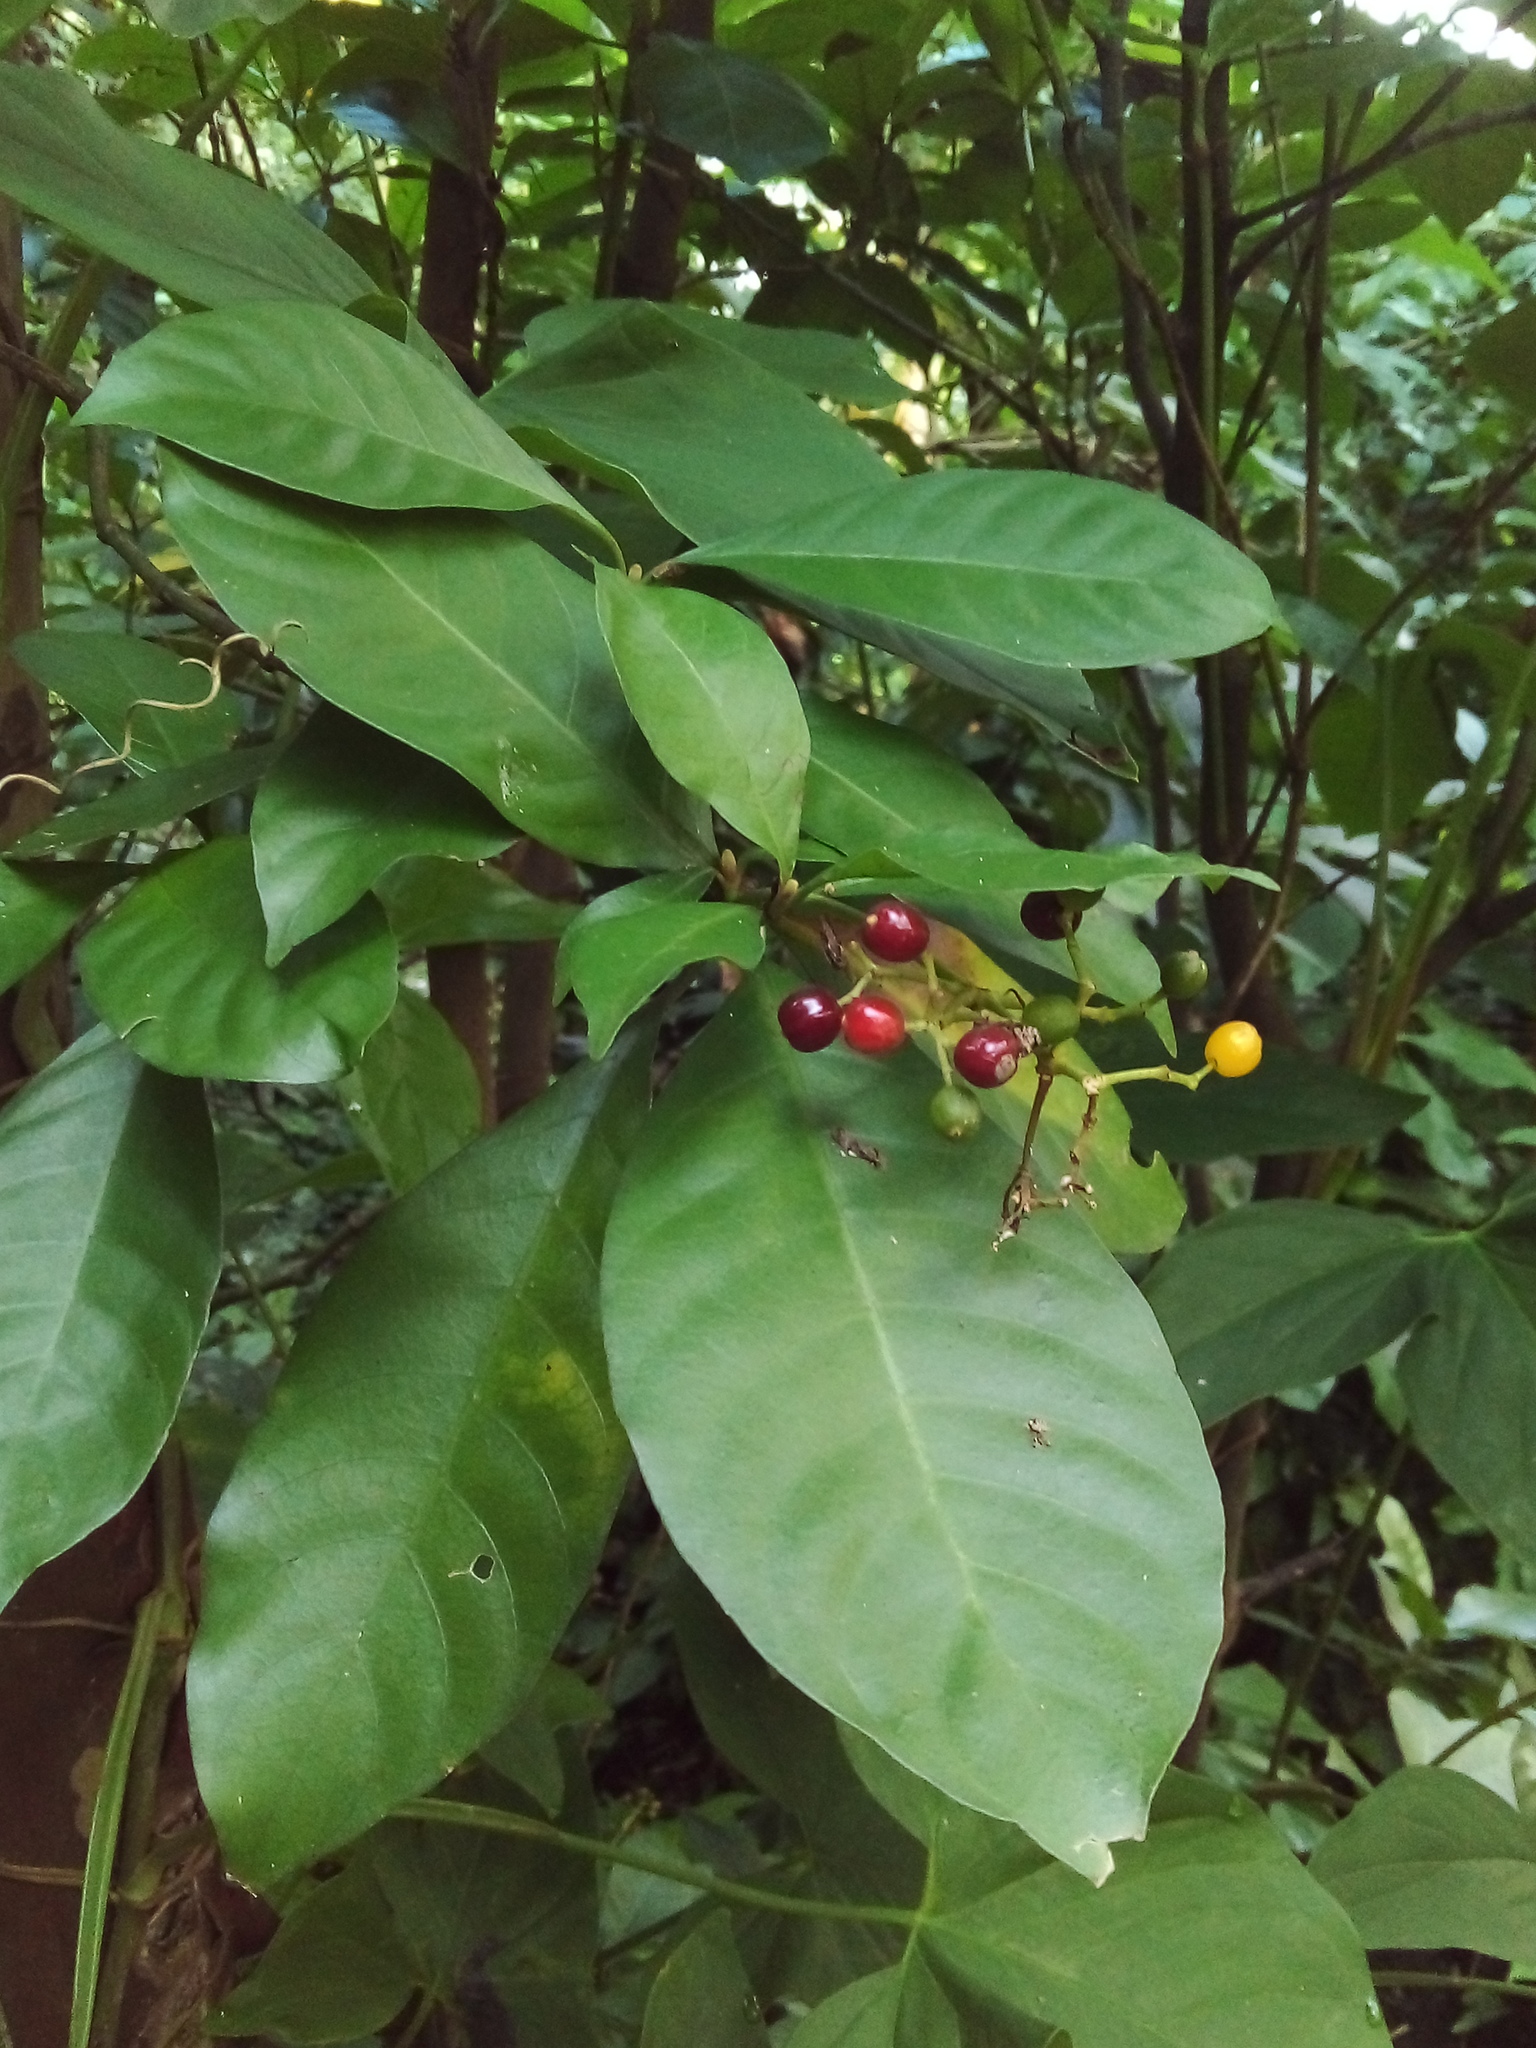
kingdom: Plantae
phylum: Tracheophyta
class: Magnoliopsida
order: Gentianales
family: Rubiaceae
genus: Psychotria
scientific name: Psychotria carthagenensis
